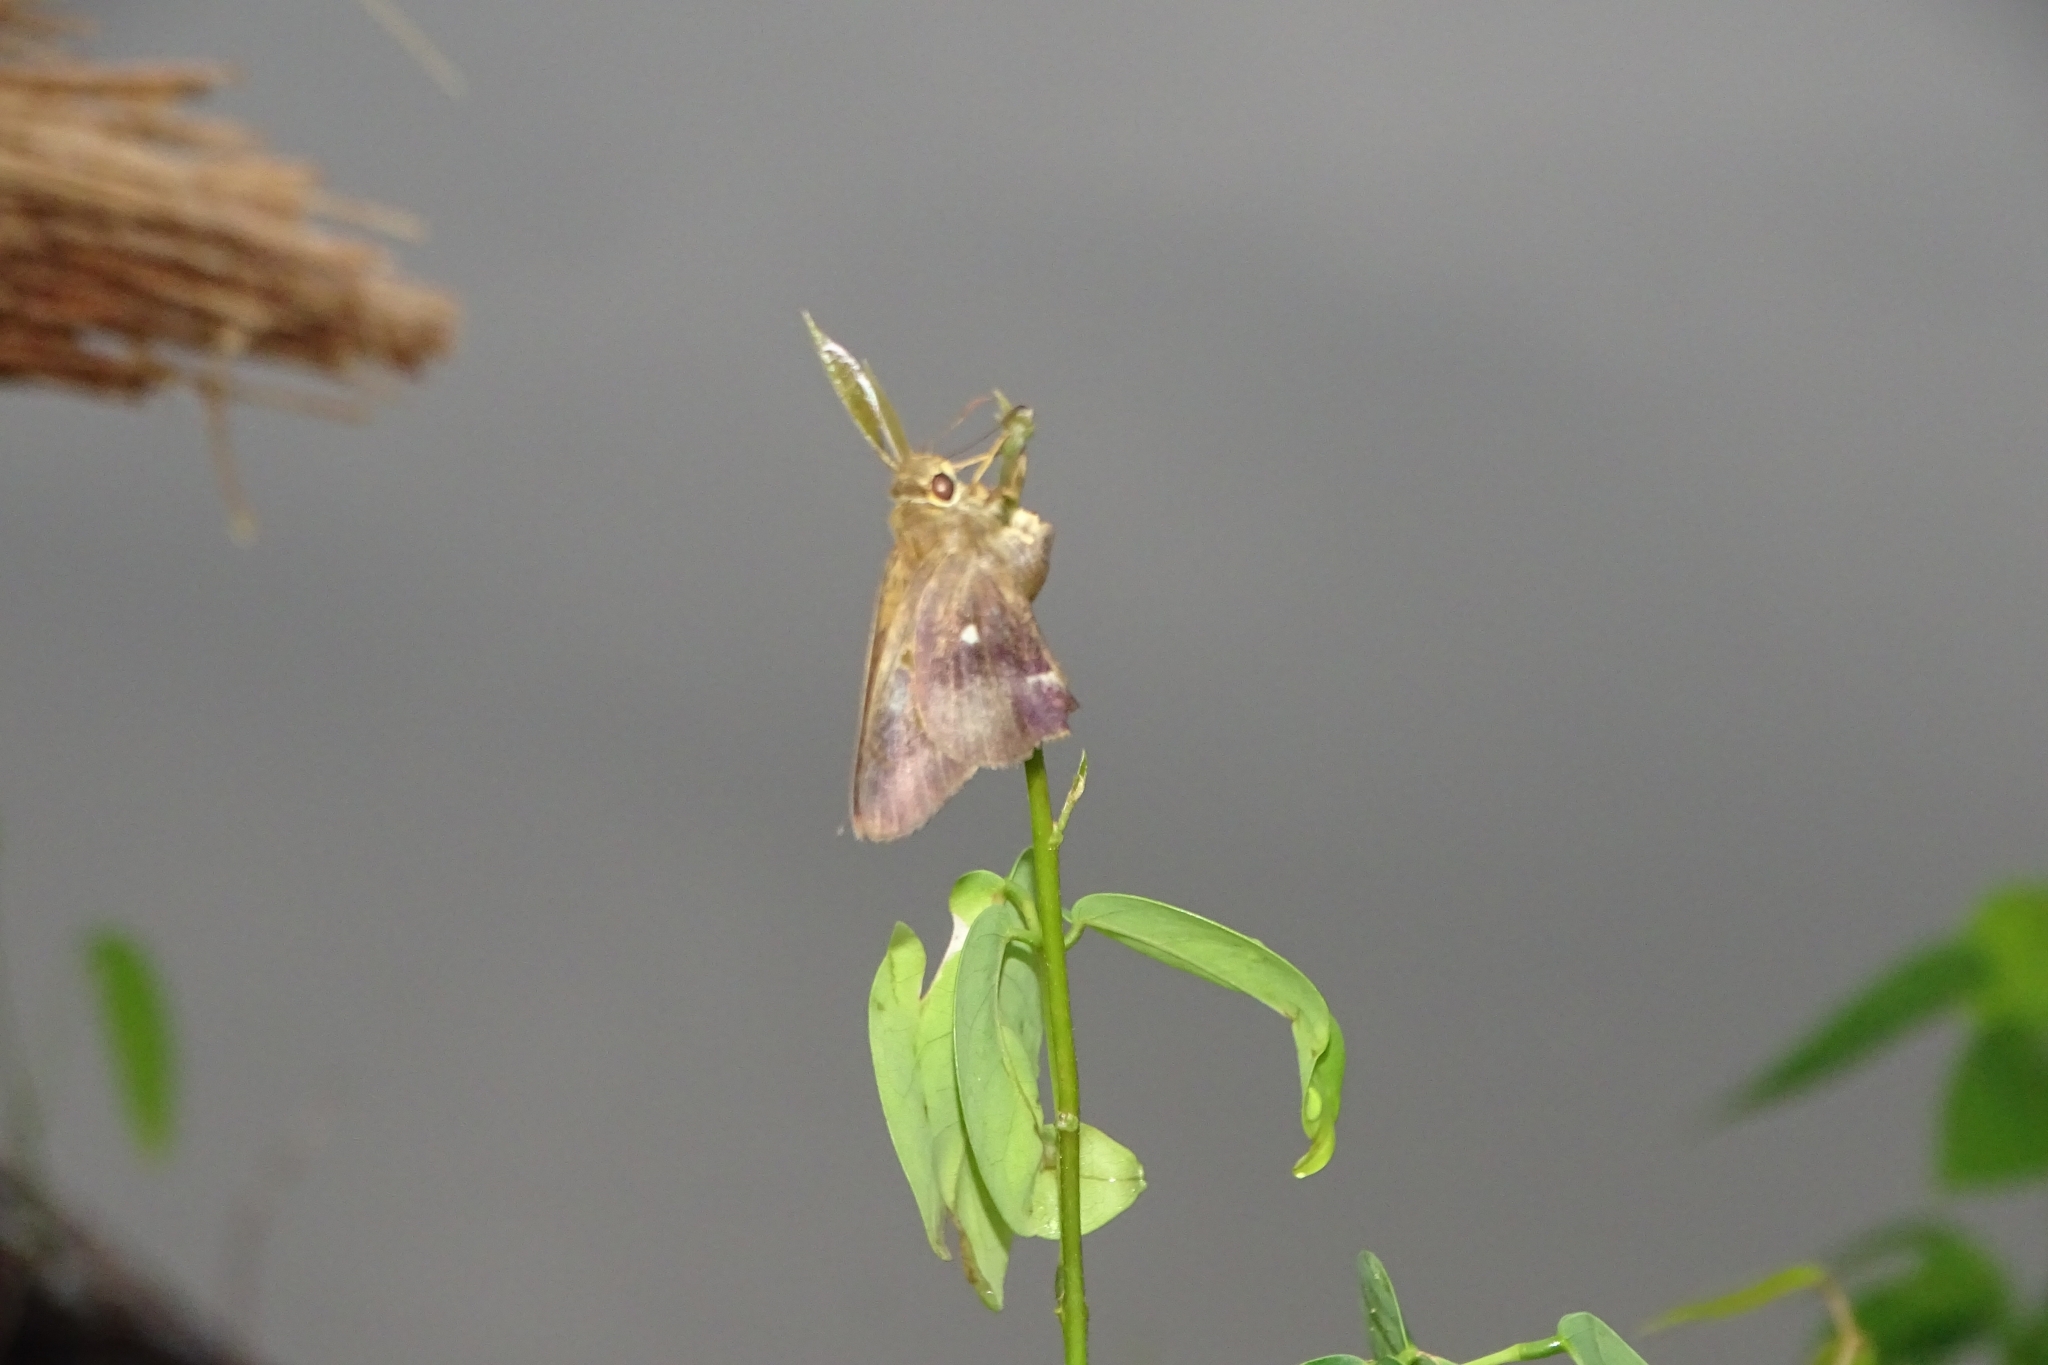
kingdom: Animalia
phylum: Arthropoda
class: Insecta
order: Lepidoptera
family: Hesperiidae
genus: Hasora
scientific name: Hasora badra
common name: Common awl
